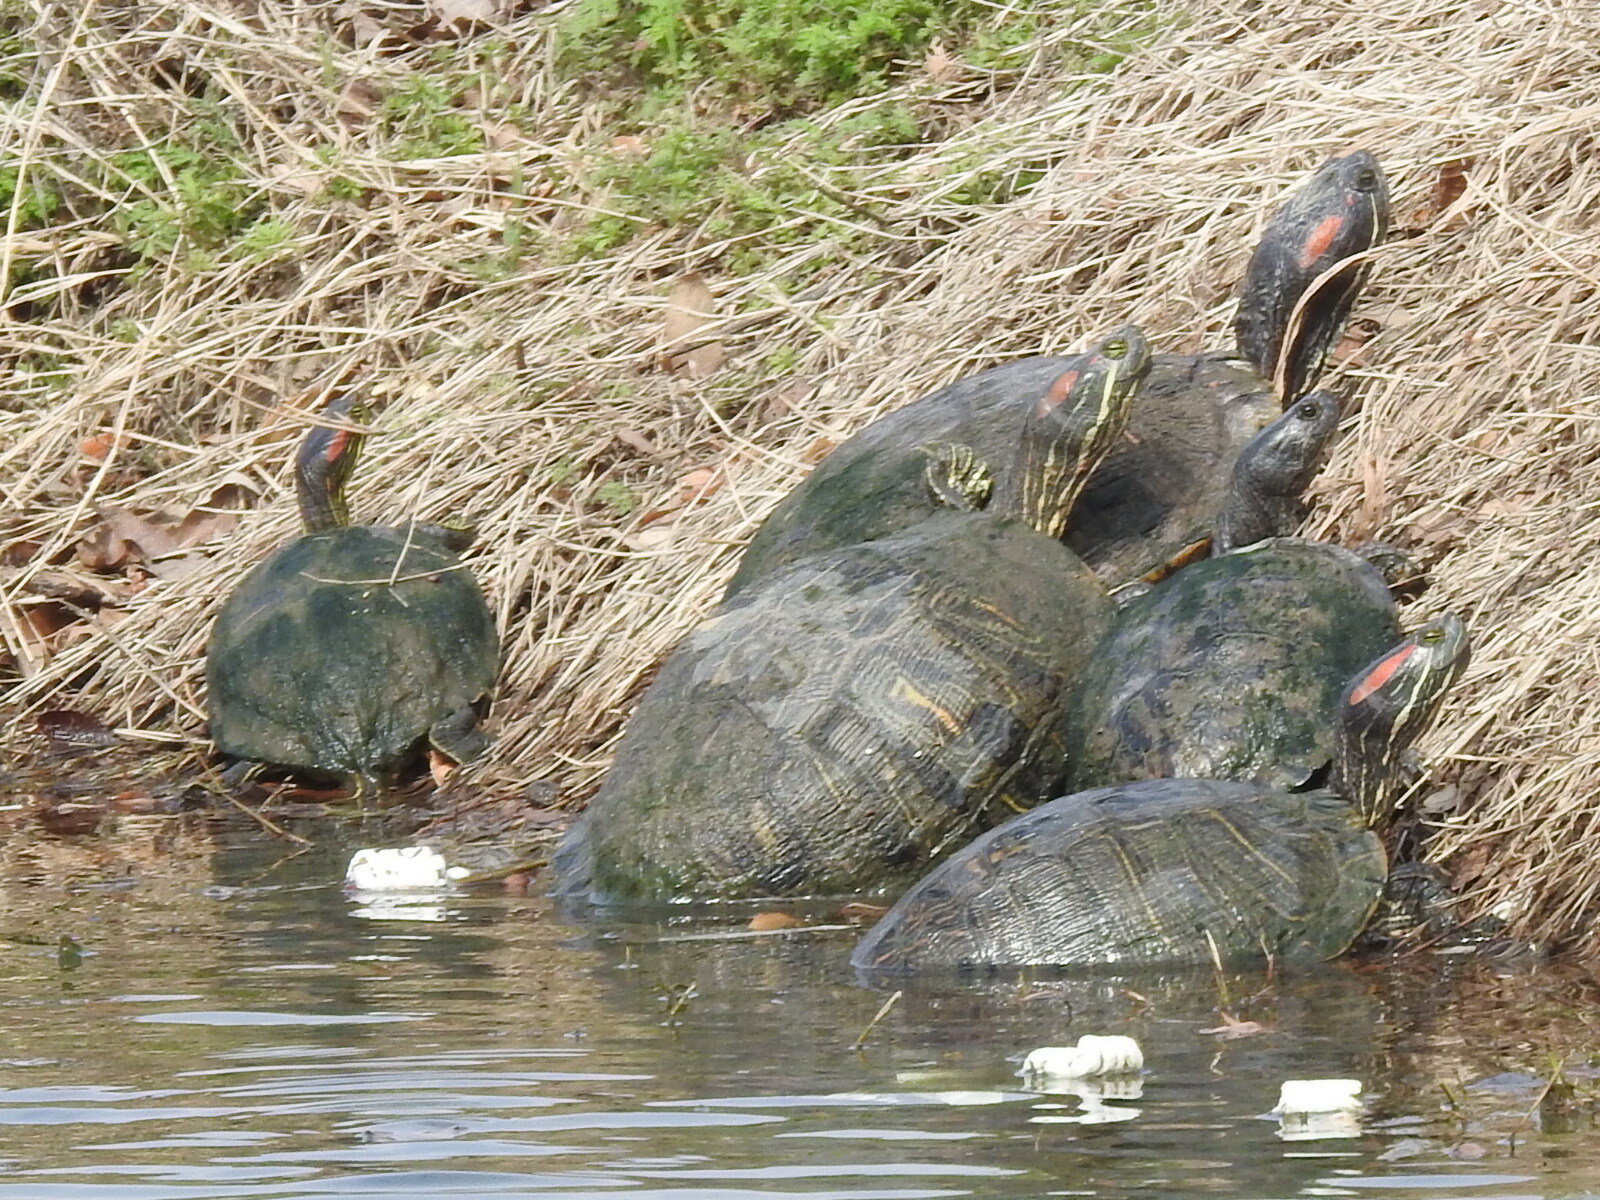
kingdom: Animalia
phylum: Chordata
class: Testudines
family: Emydidae
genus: Trachemys
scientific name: Trachemys scripta
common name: Slider
